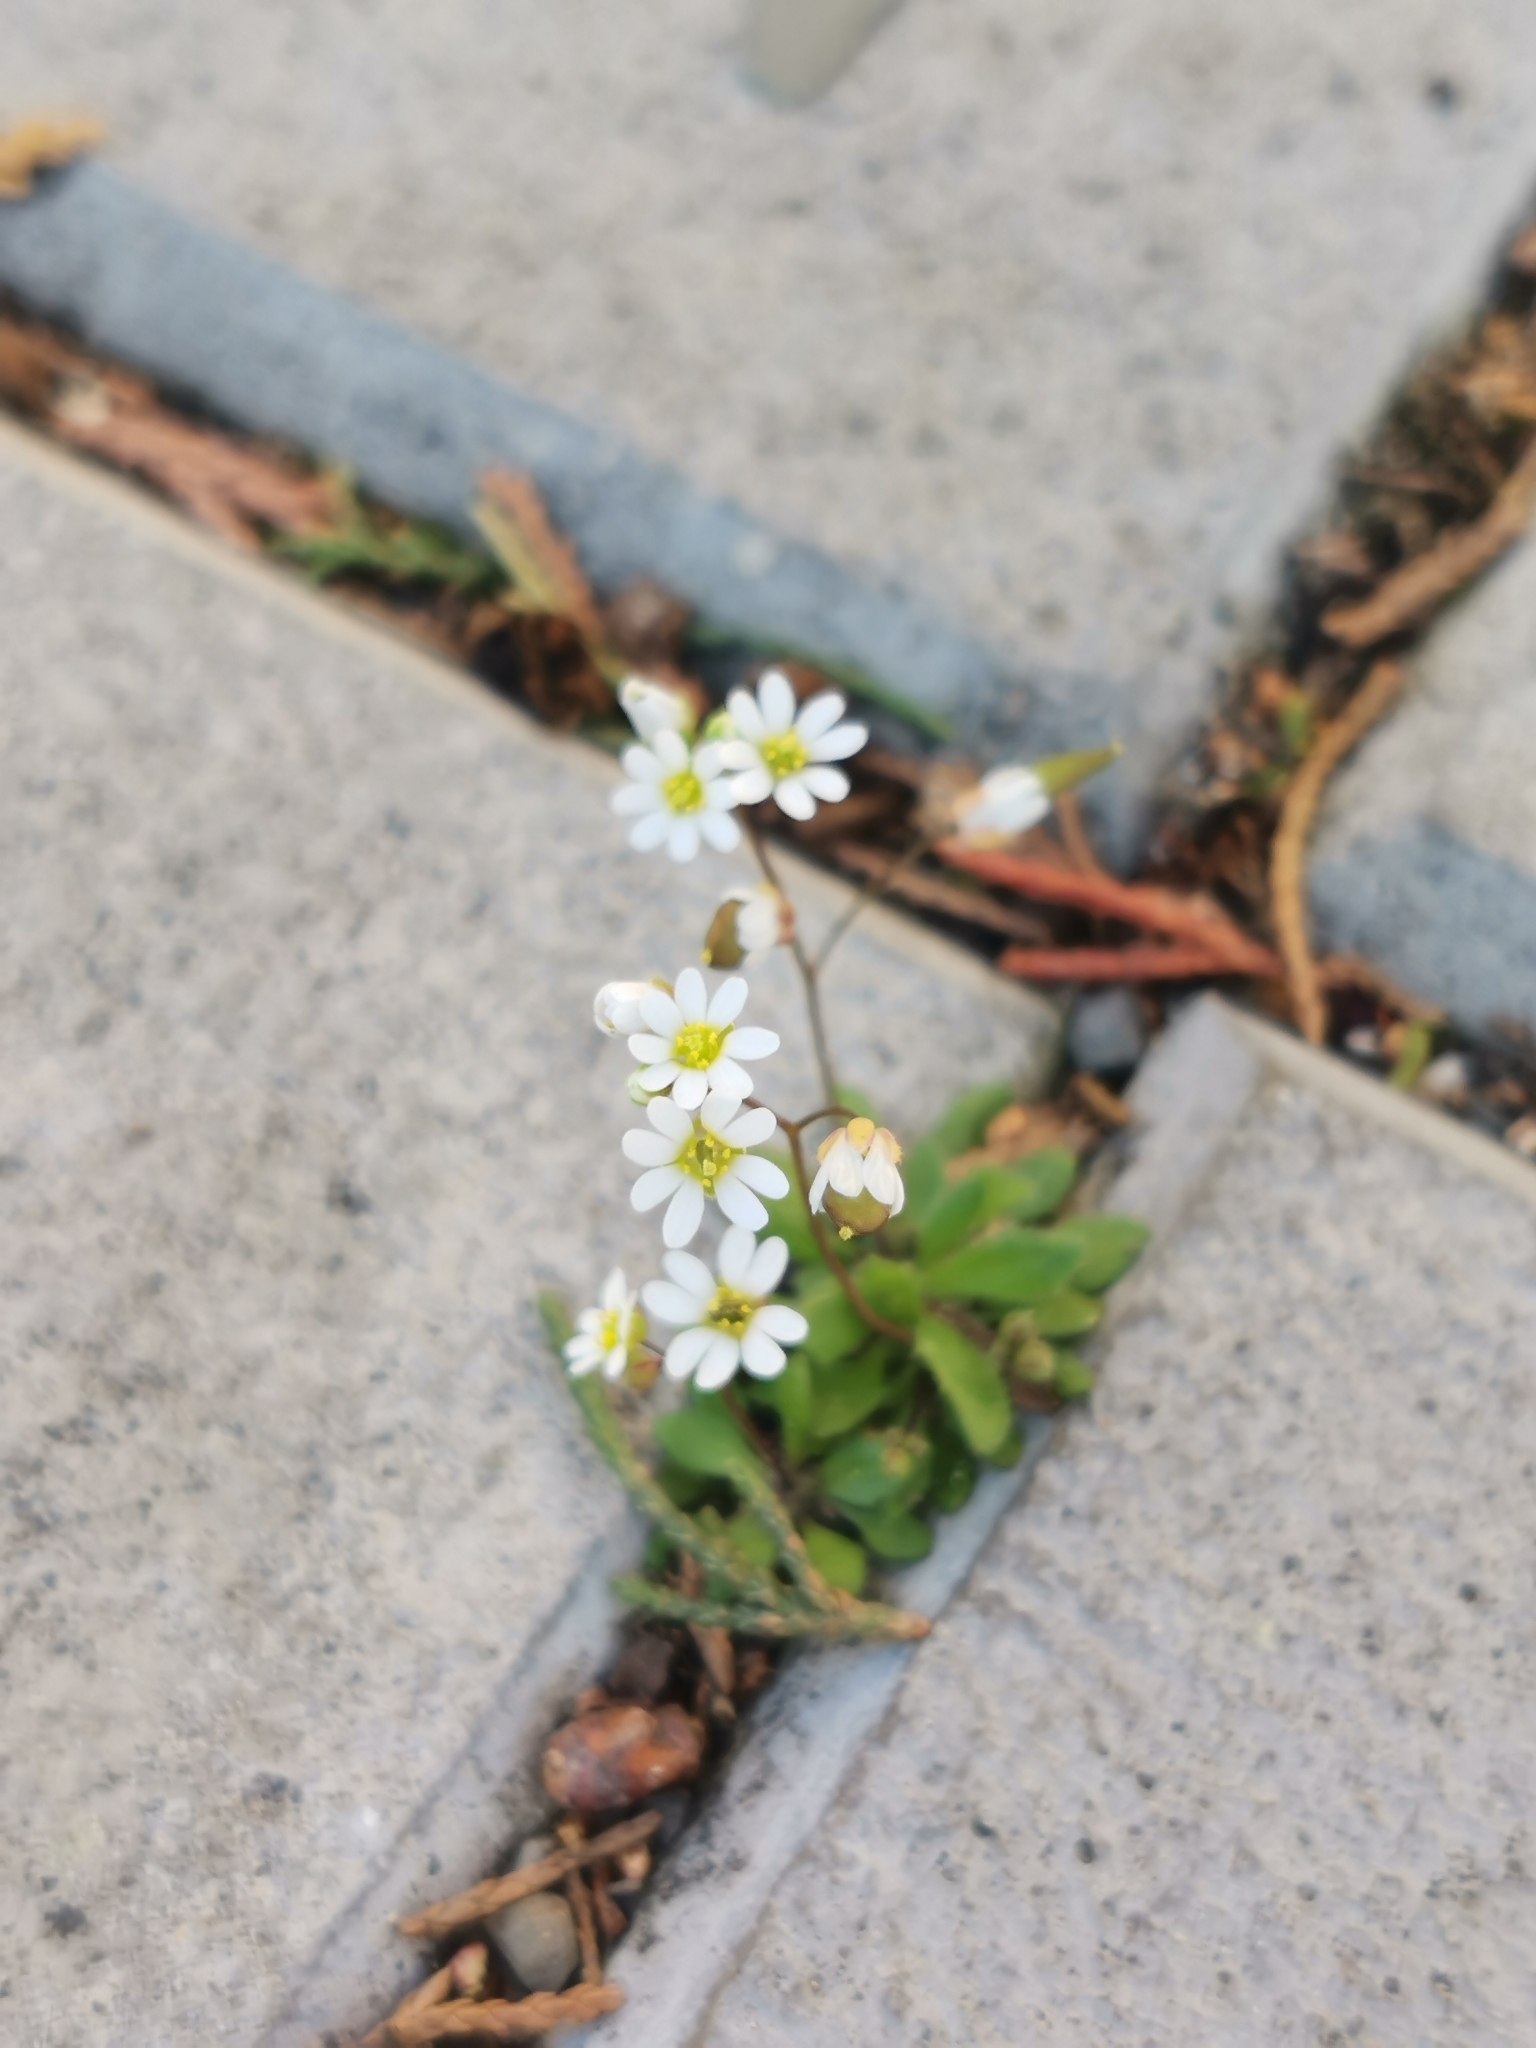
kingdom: Plantae
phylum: Tracheophyta
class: Magnoliopsida
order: Brassicales
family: Brassicaceae
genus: Draba
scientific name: Draba verna
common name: Spring draba
